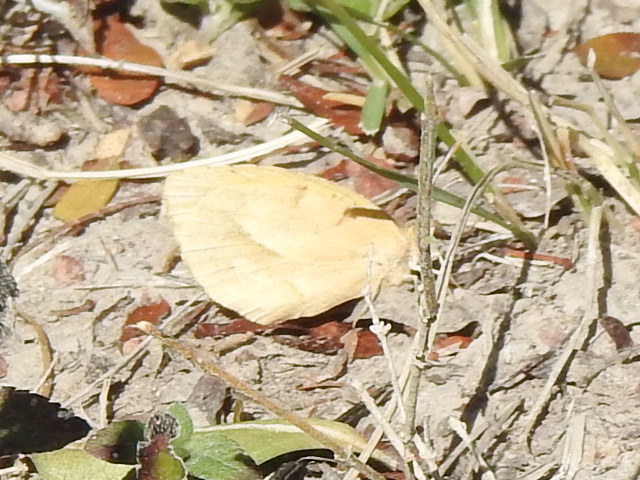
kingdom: Animalia
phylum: Arthropoda
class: Insecta
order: Lepidoptera
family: Pieridae
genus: Abaeis
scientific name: Abaeis nicippe
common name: Sleepy orange
